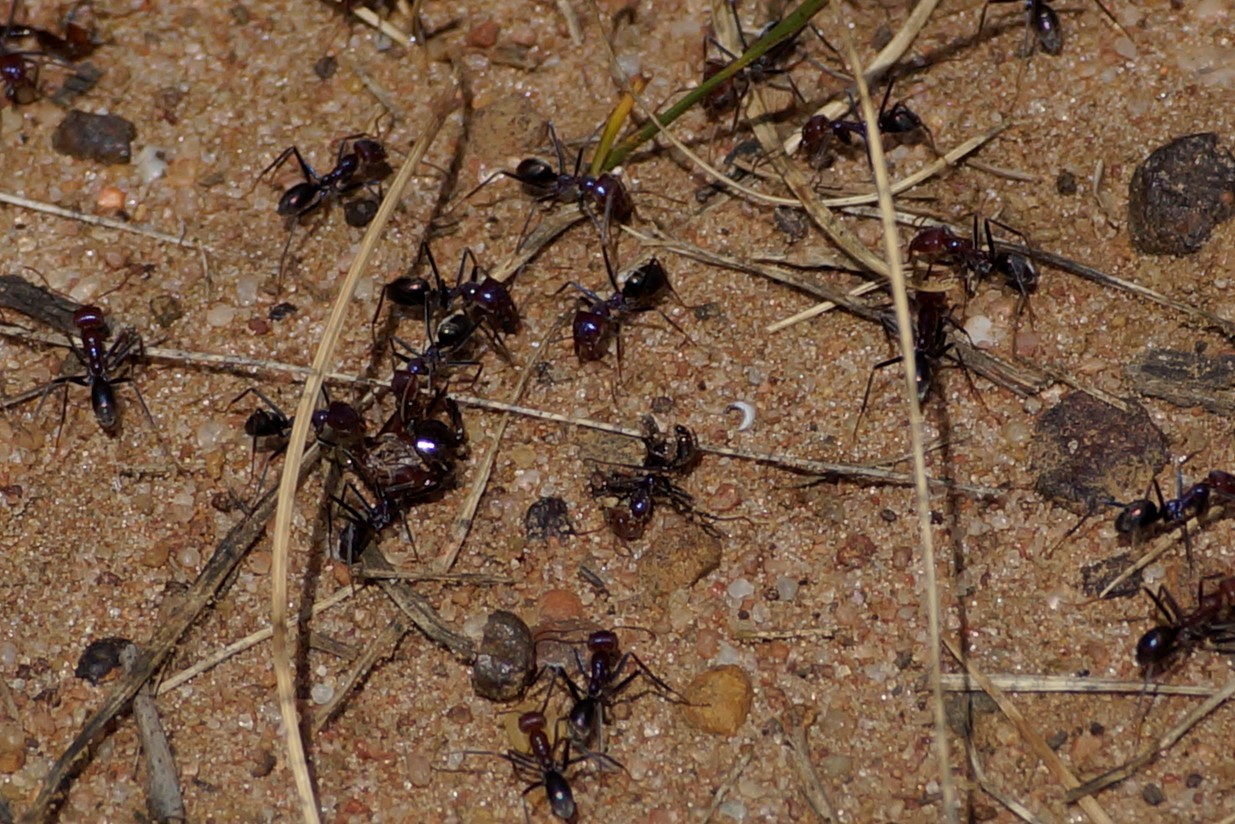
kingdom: Animalia
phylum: Arthropoda
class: Insecta
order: Hymenoptera
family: Formicidae
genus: Iridomyrmex
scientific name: Iridomyrmex purpureus
